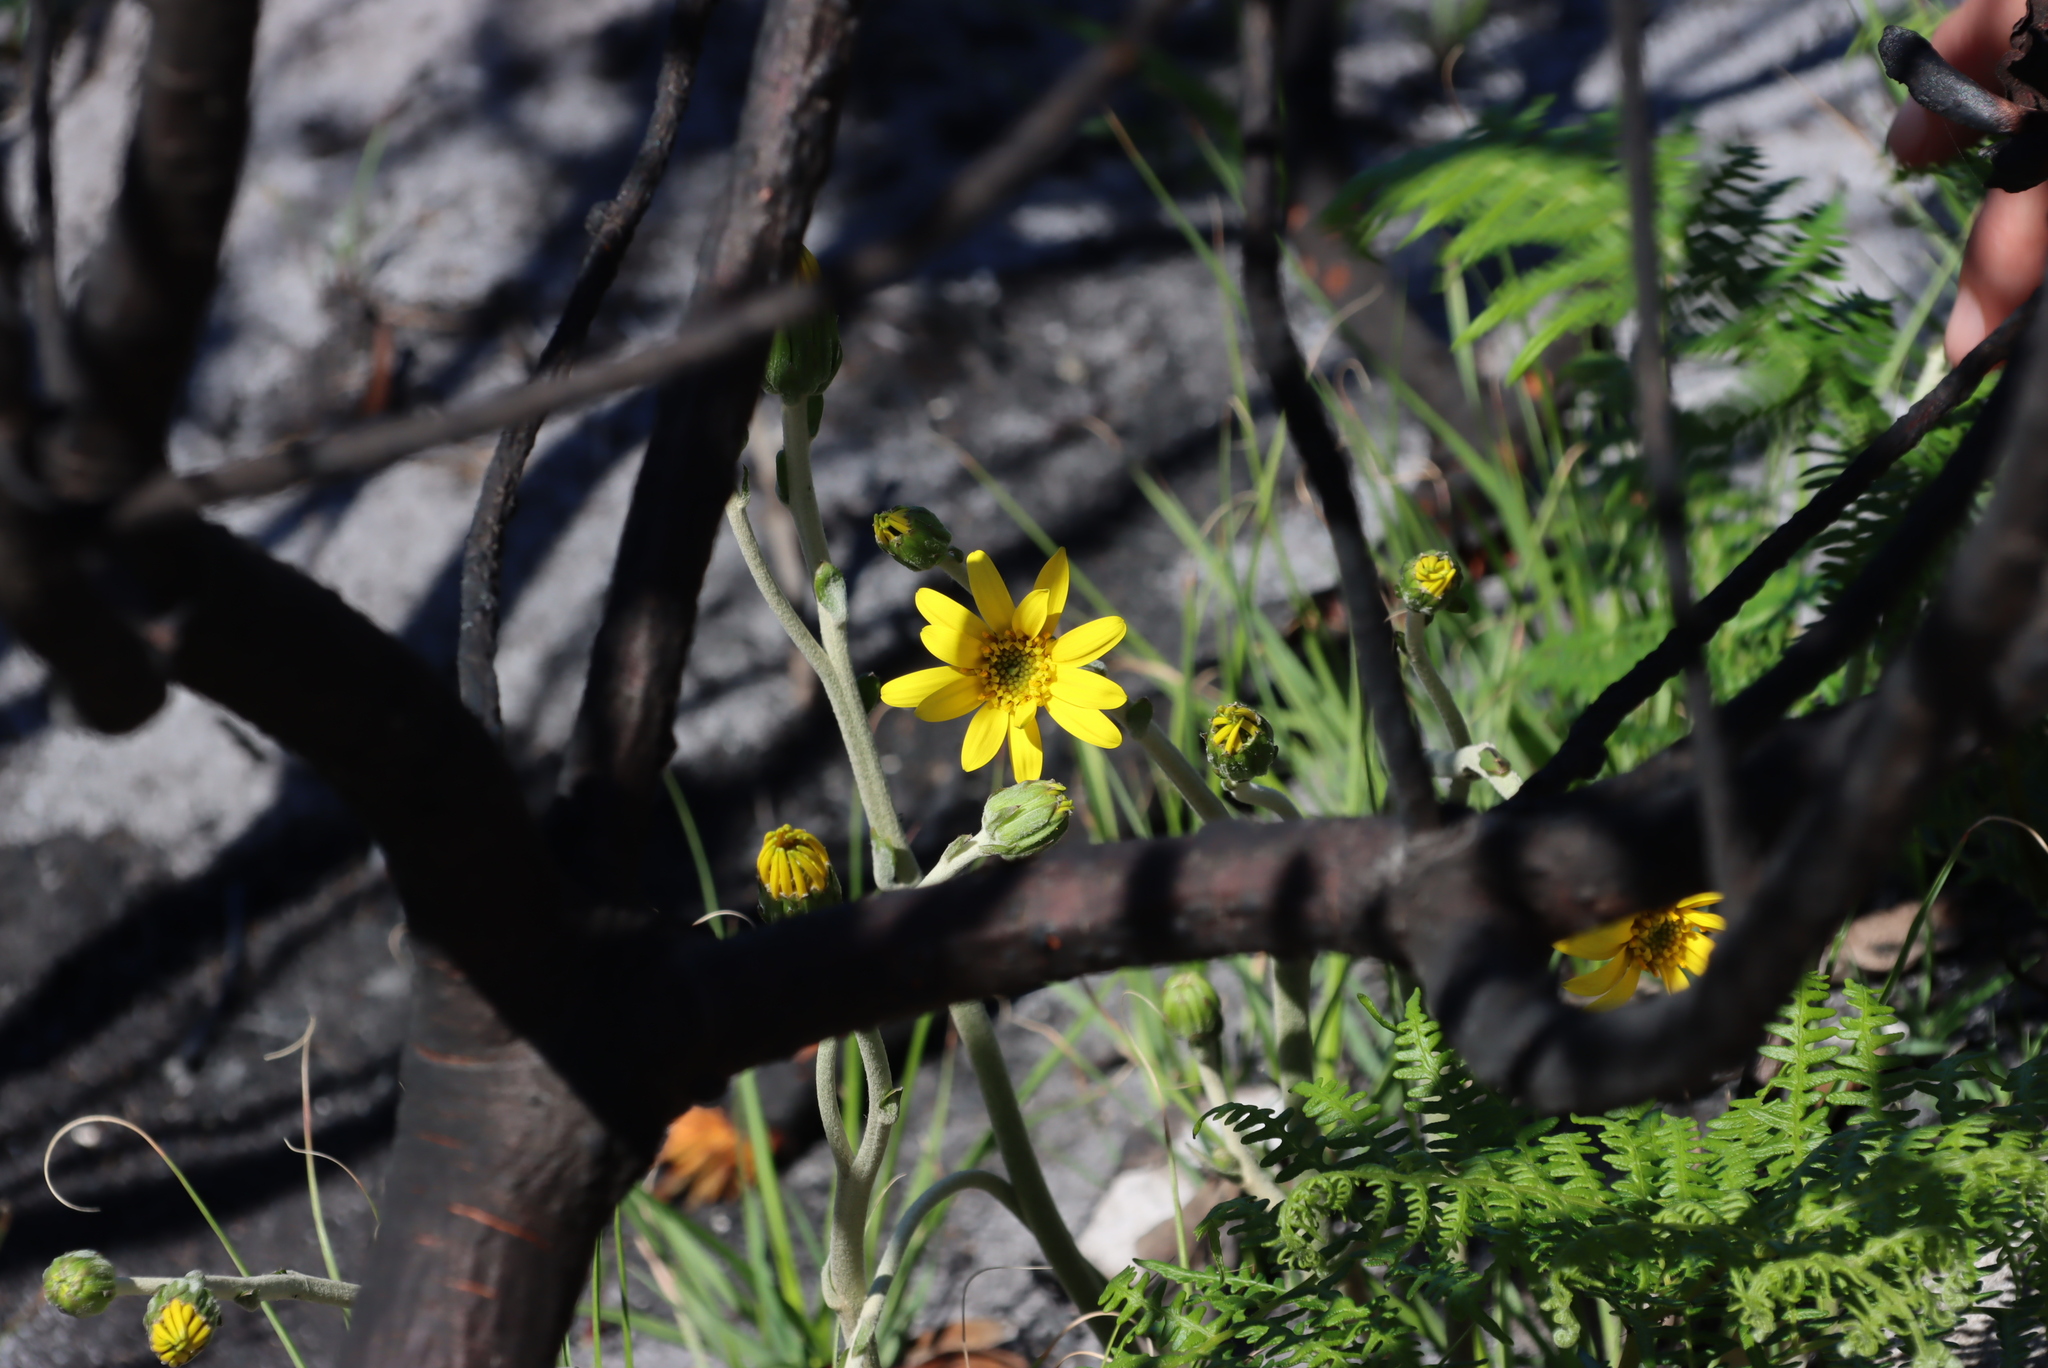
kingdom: Plantae
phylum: Tracheophyta
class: Magnoliopsida
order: Asterales
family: Asteraceae
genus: Capelio
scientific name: Capelio tabularis
